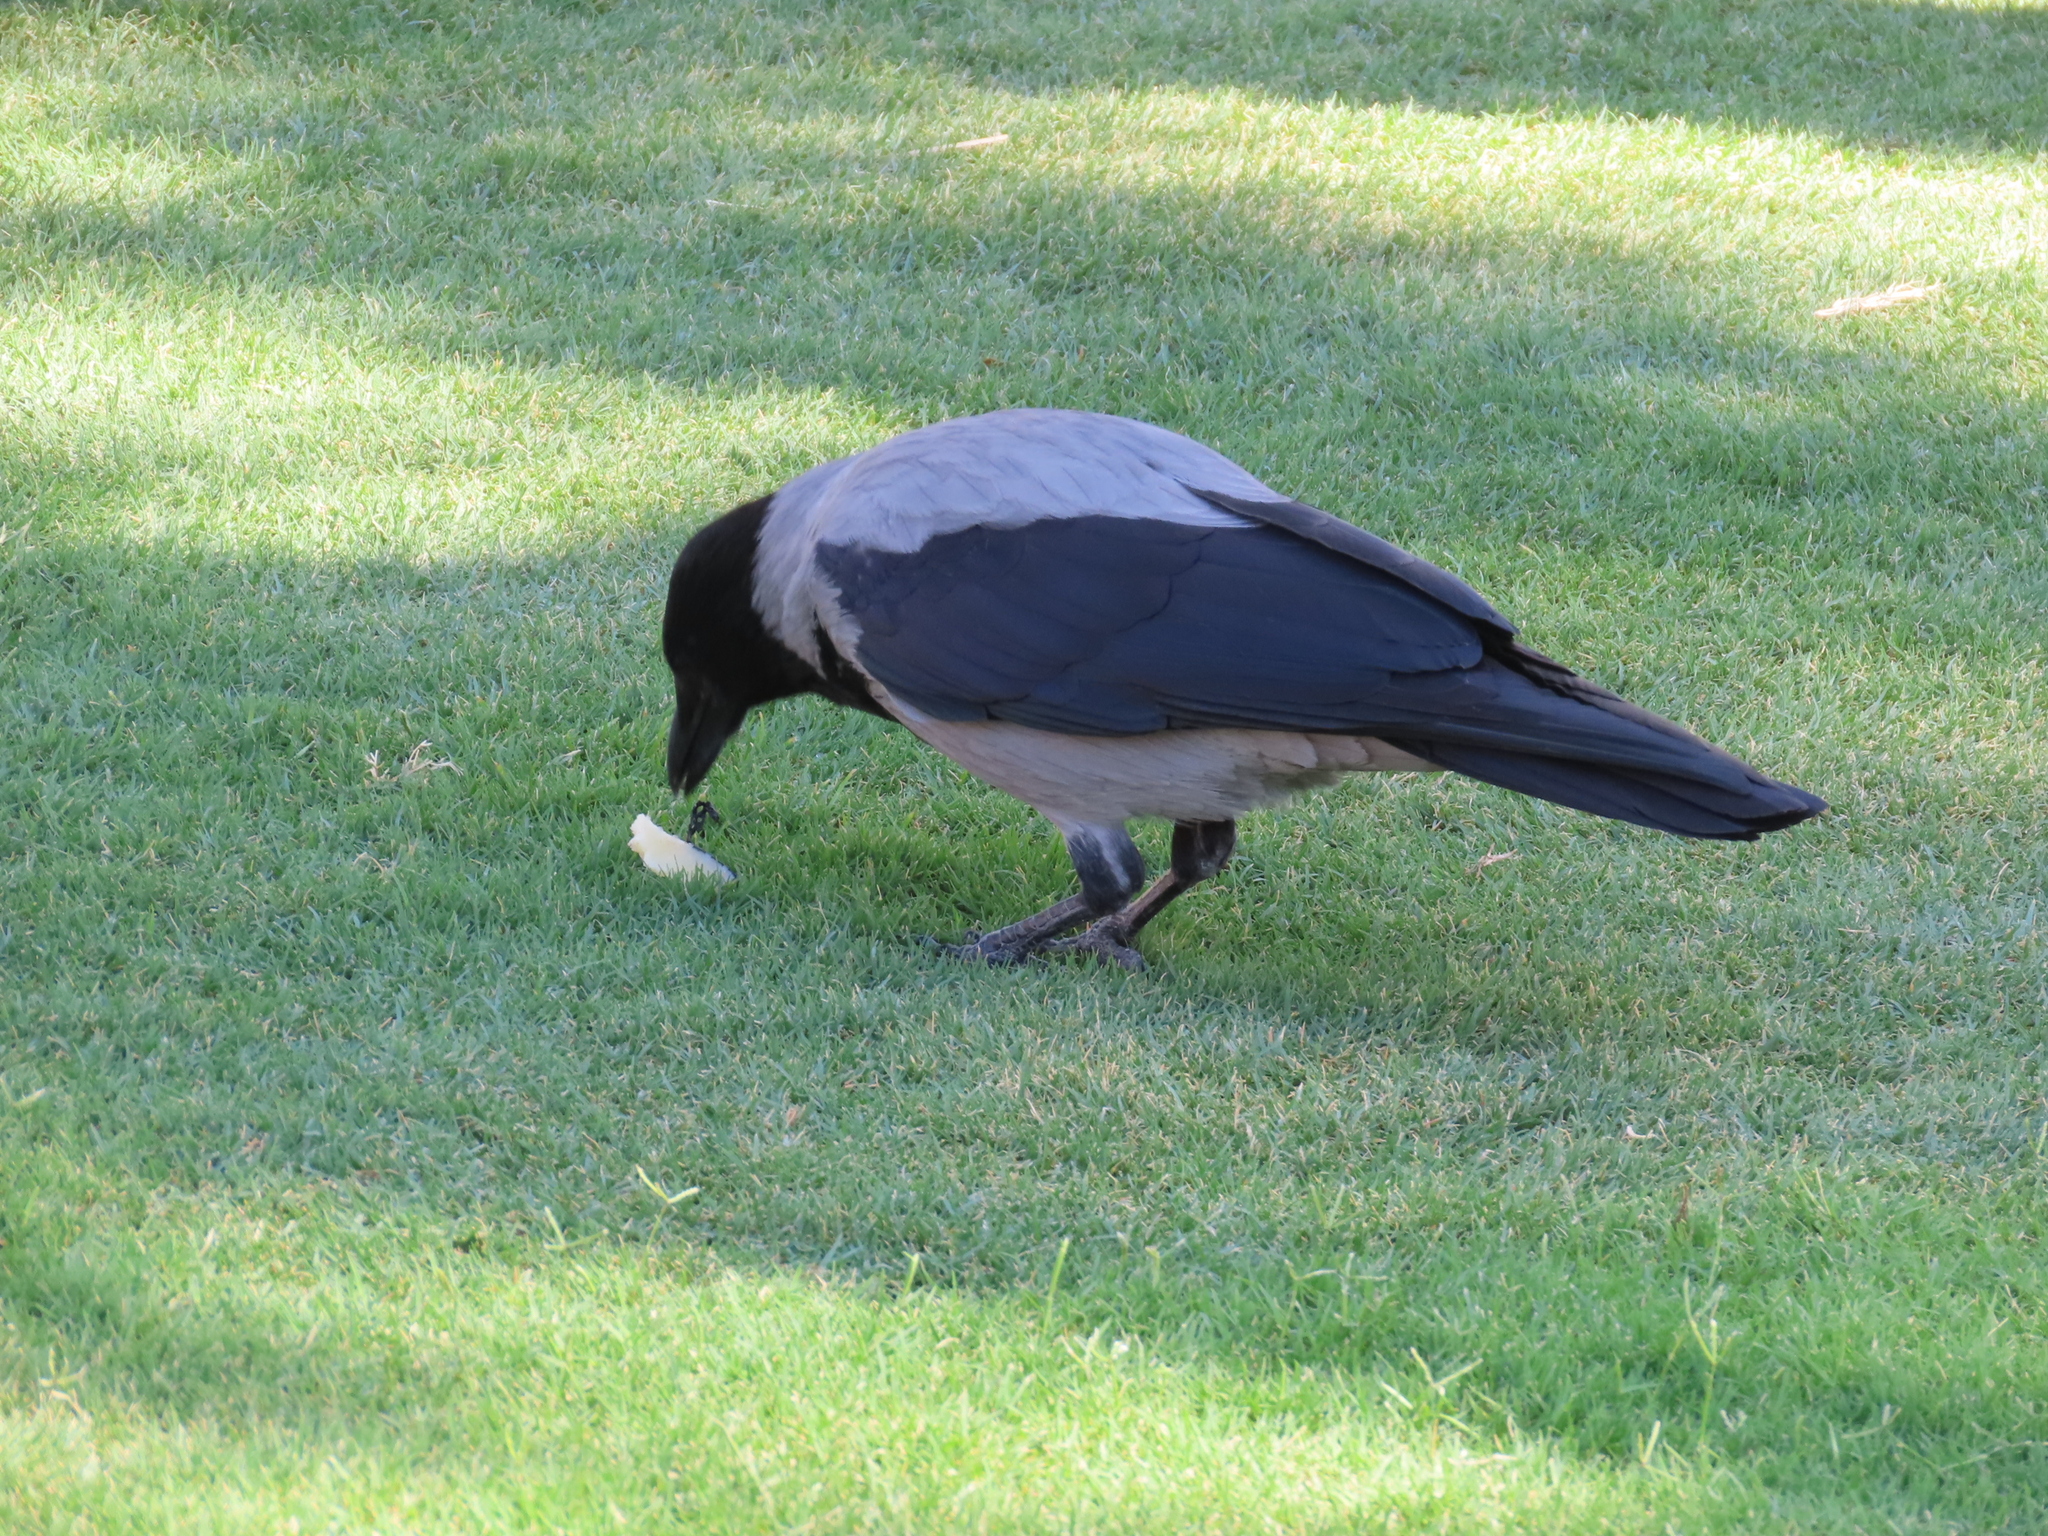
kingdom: Animalia
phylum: Chordata
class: Aves
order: Passeriformes
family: Corvidae
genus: Corvus
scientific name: Corvus cornix
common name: Hooded crow
